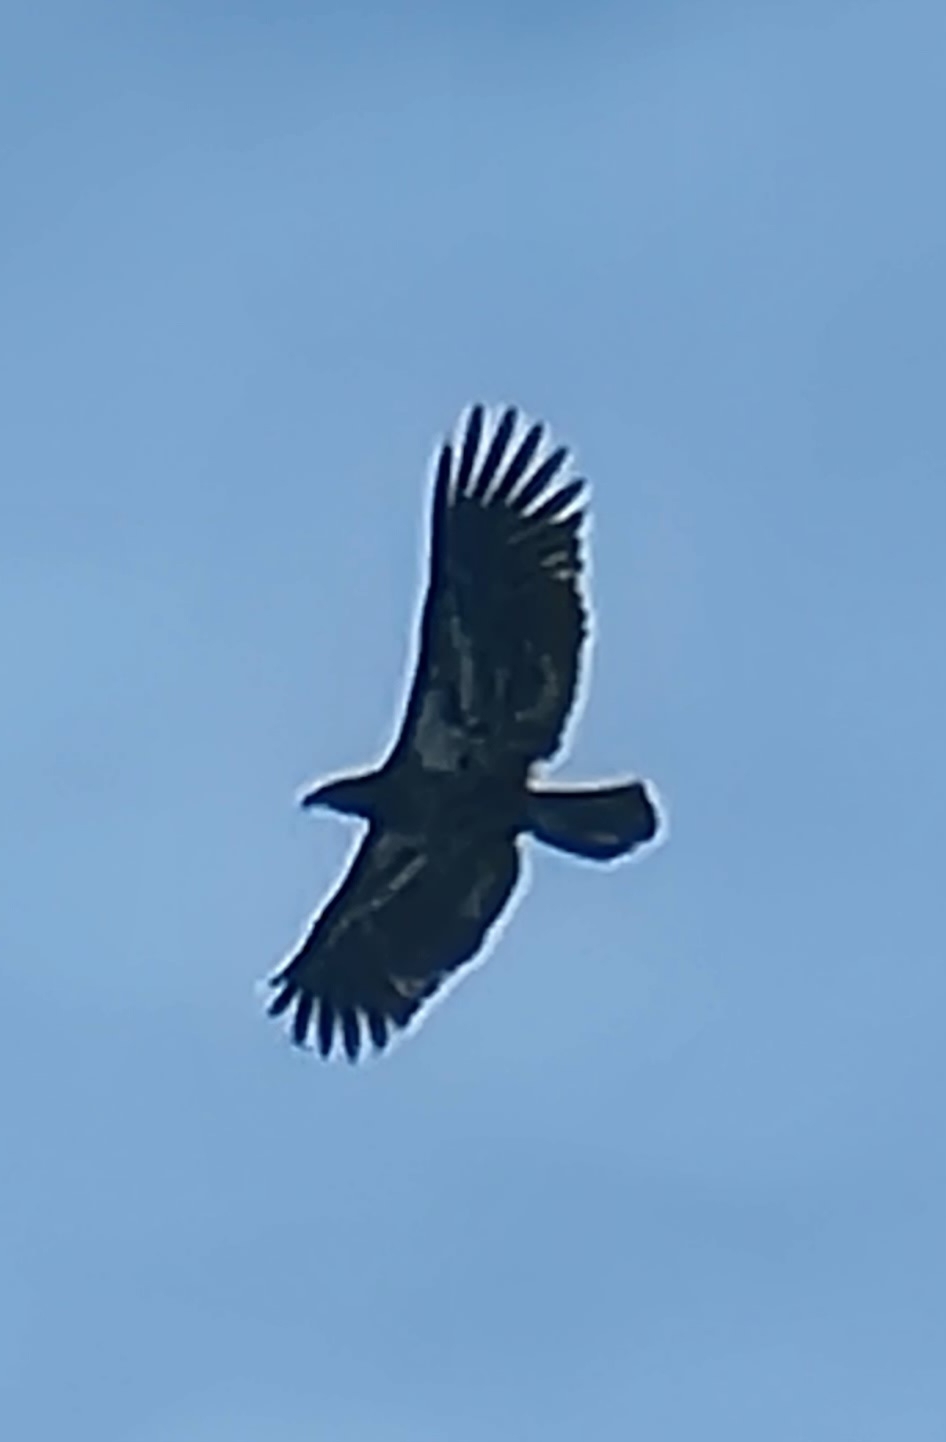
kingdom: Animalia
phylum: Chordata
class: Aves
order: Accipitriformes
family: Accipitridae
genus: Haliaeetus
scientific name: Haliaeetus leucocephalus
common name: Bald eagle
